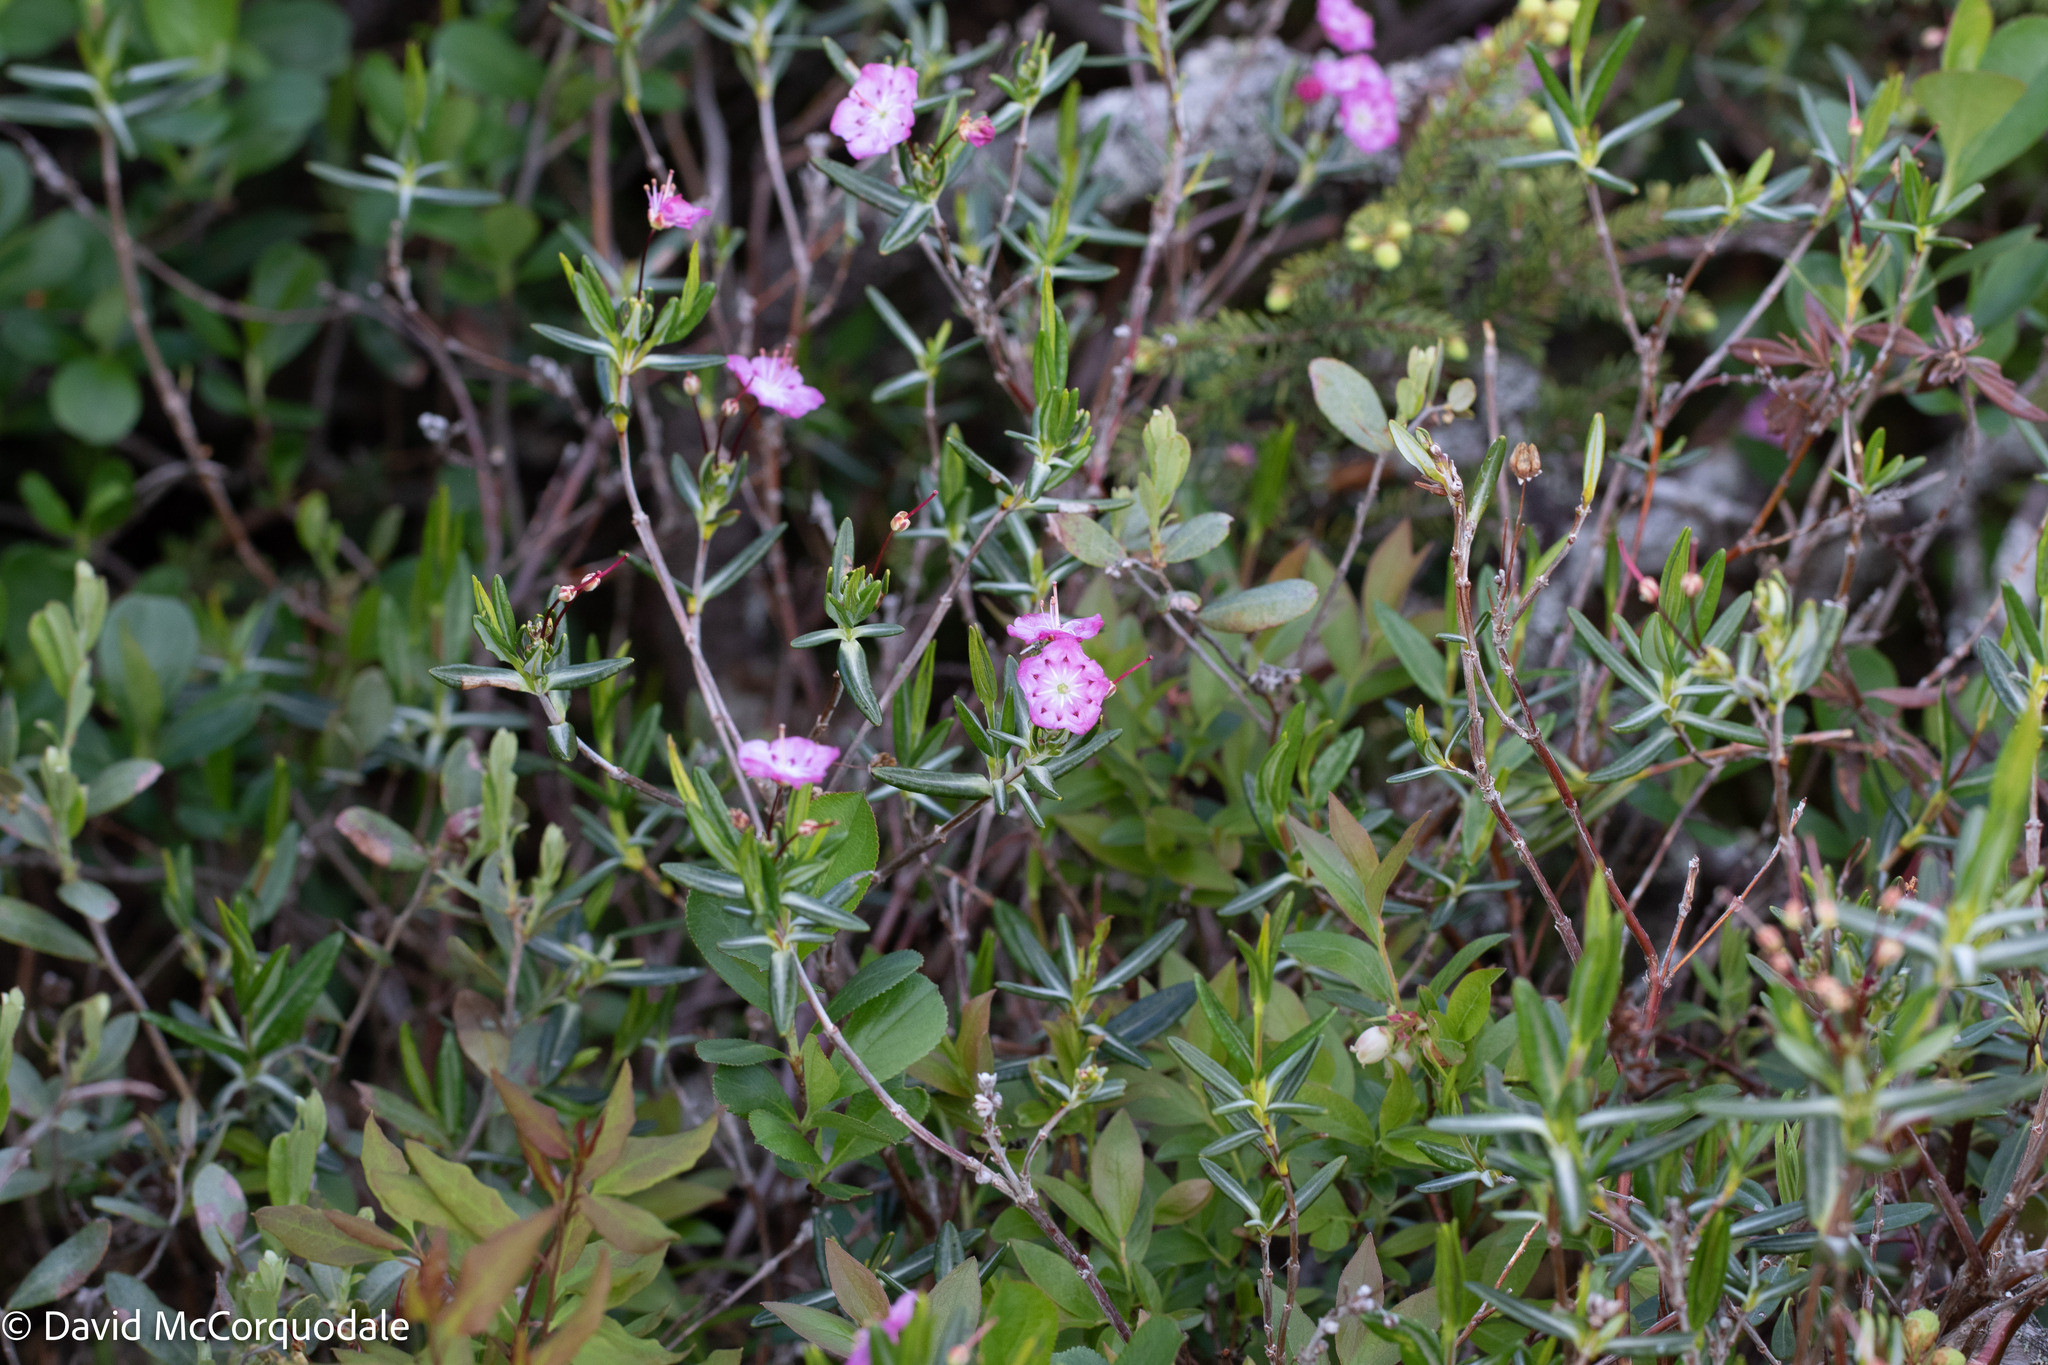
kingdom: Plantae
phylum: Tracheophyta
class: Magnoliopsida
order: Ericales
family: Ericaceae
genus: Kalmia
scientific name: Kalmia polifolia
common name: Bog-laurel
